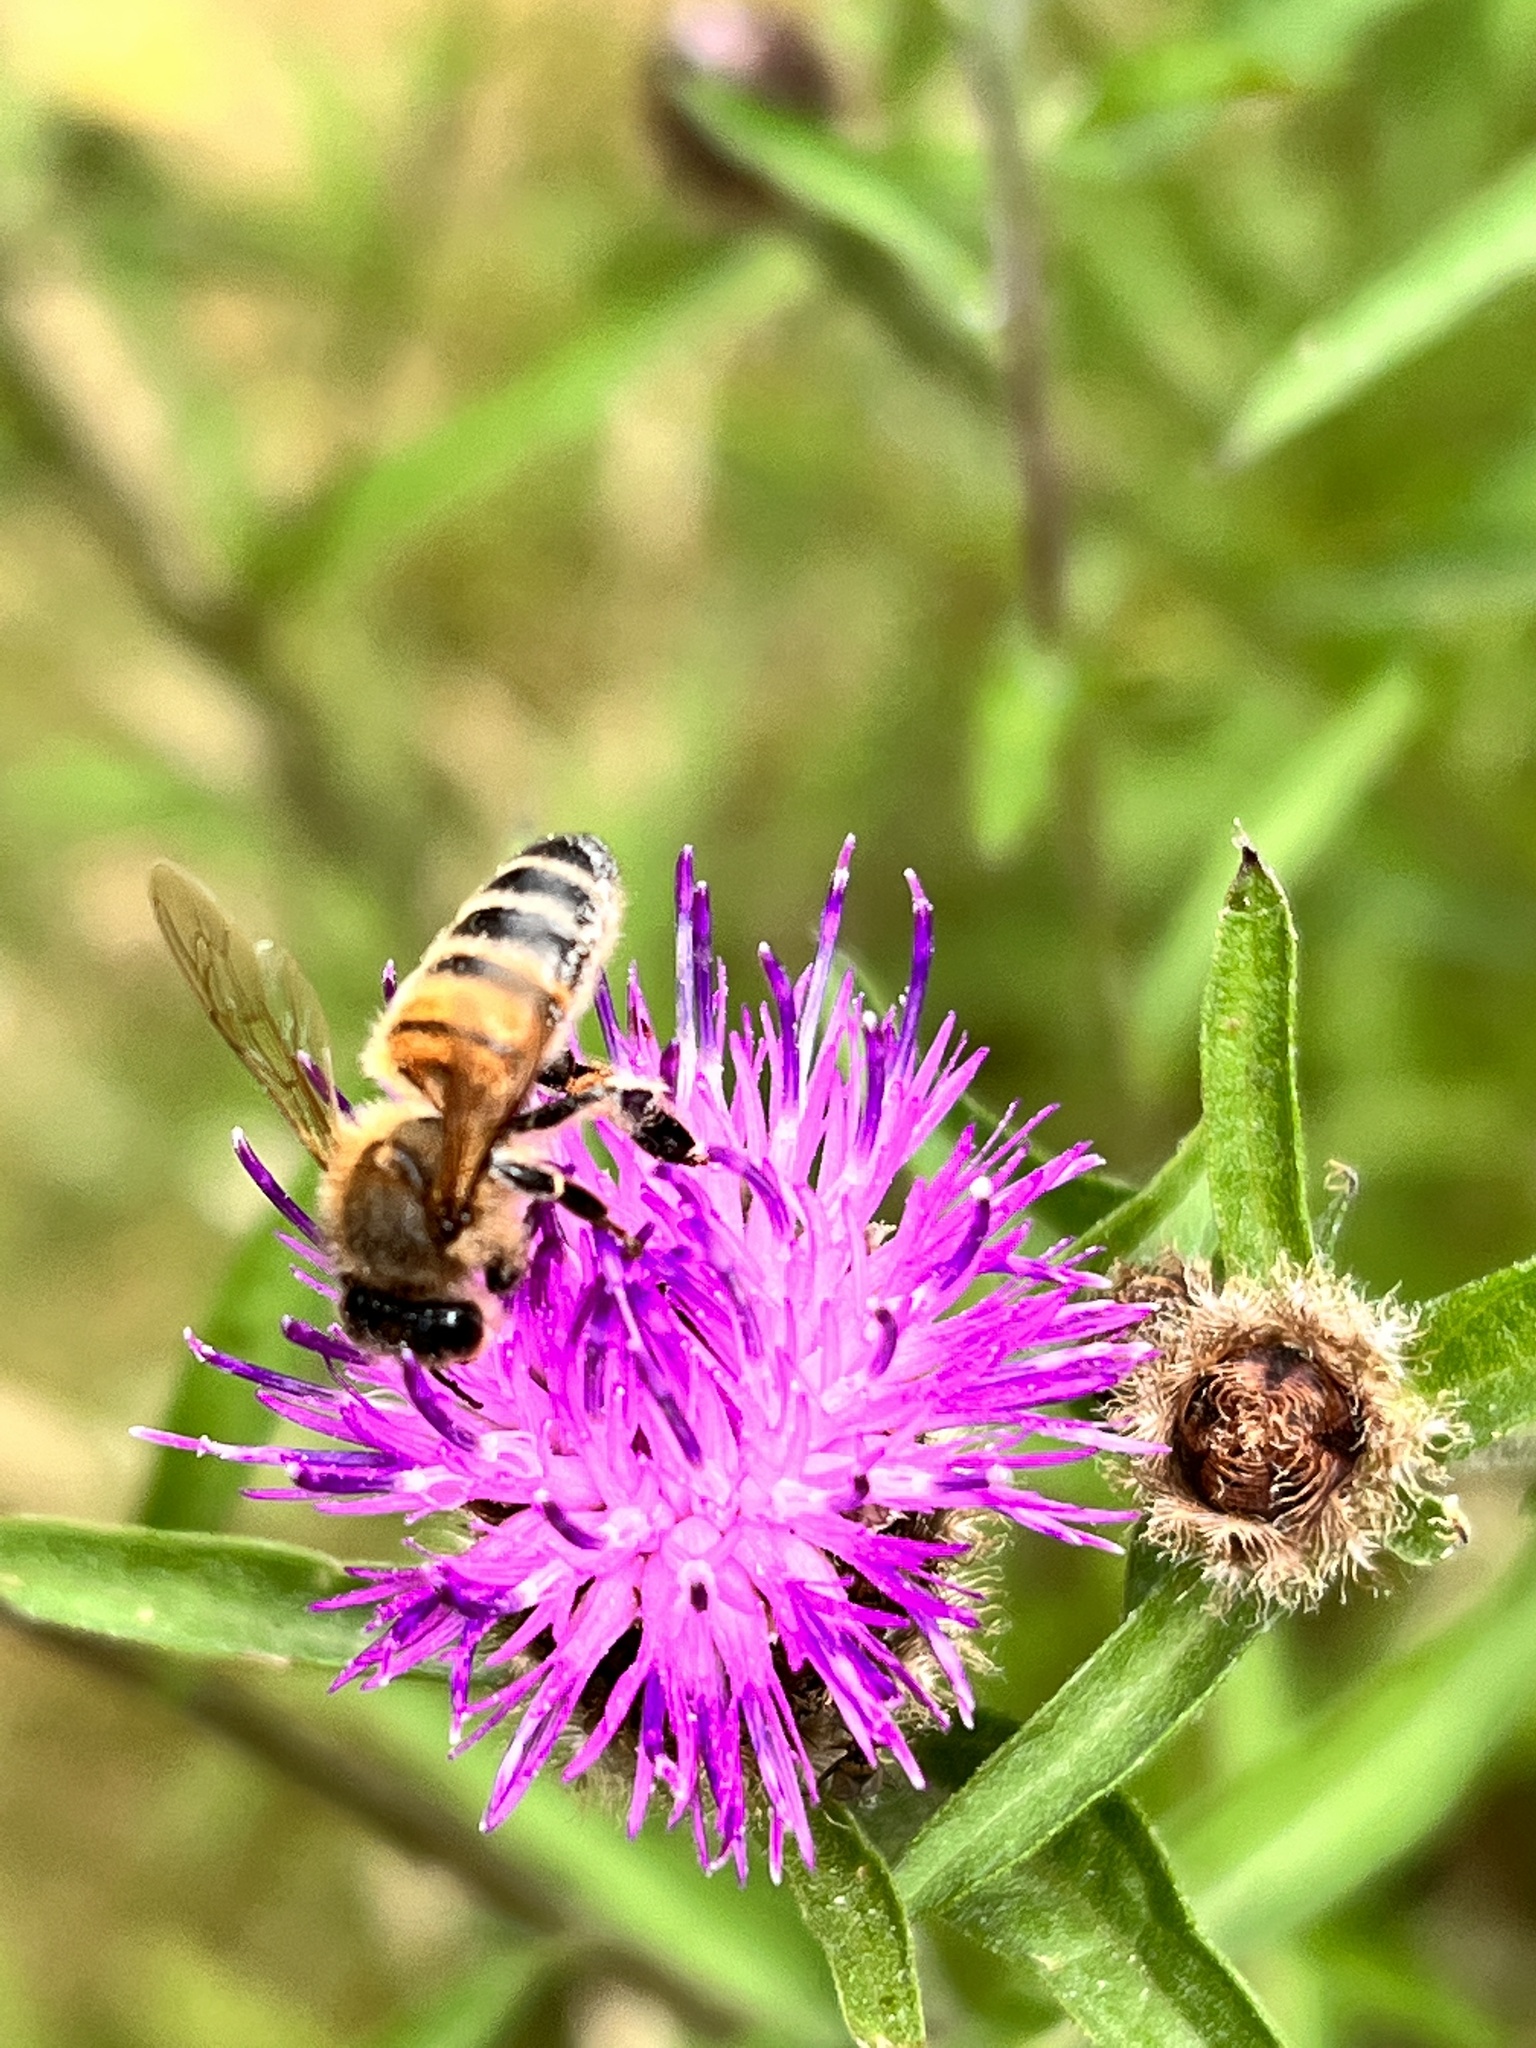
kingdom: Animalia
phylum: Arthropoda
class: Insecta
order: Hymenoptera
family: Apidae
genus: Apis
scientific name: Apis mellifera
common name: Honey bee
